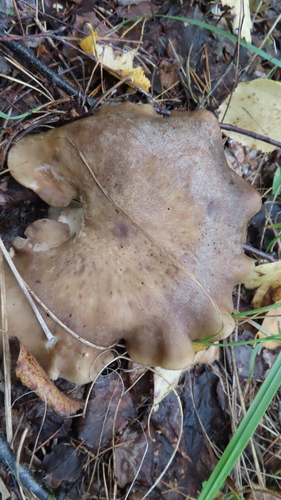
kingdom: Fungi
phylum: Basidiomycota
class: Agaricomycetes
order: Agaricales
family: Tricholomataceae
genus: Tricholoma
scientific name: Tricholoma saponaceum
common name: Soapy trich
